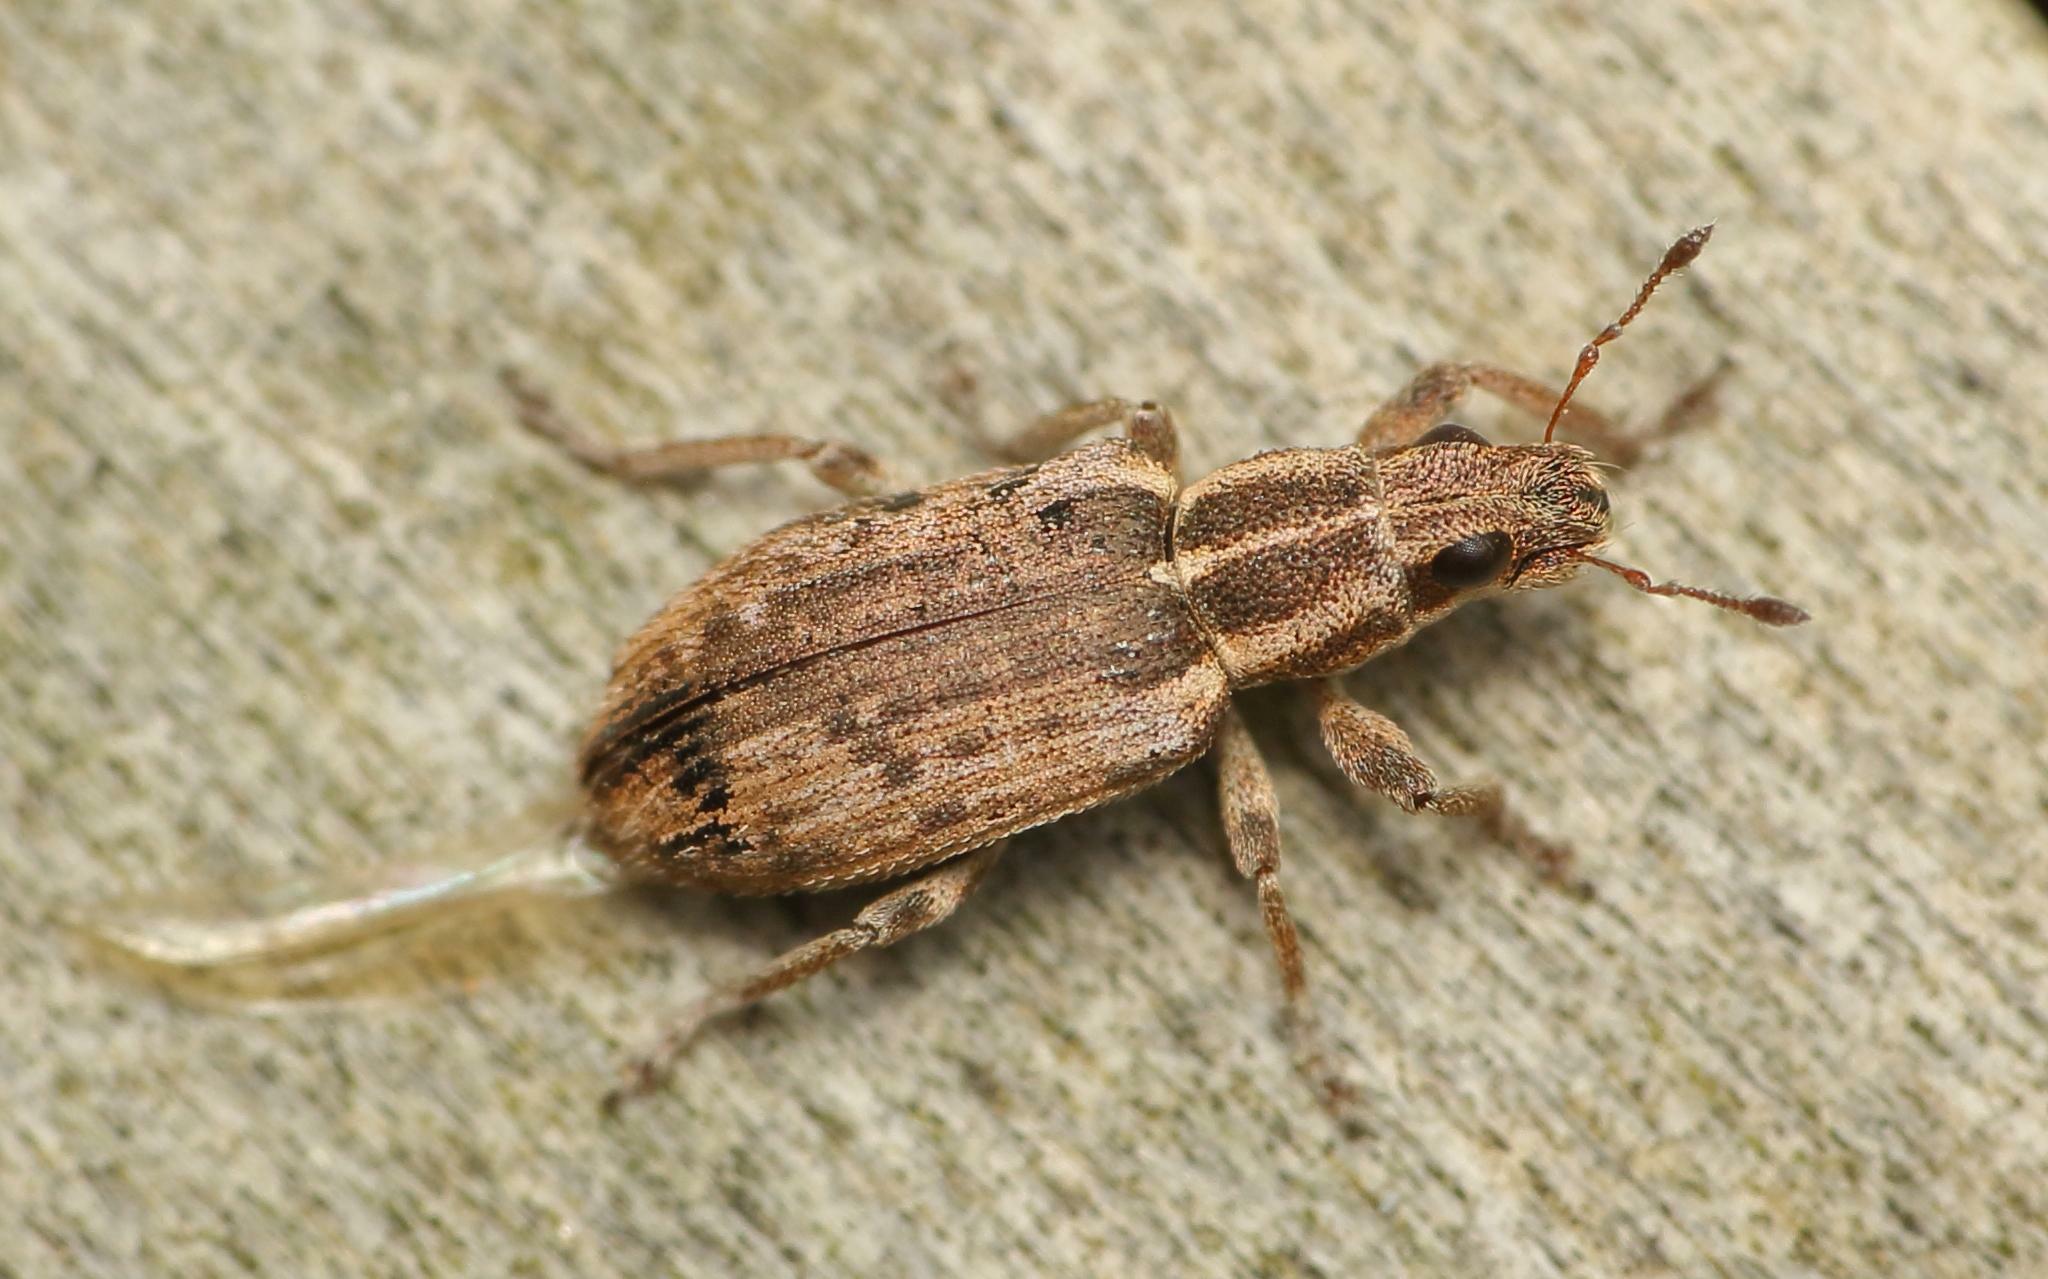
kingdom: Animalia
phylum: Arthropoda
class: Insecta
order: Coleoptera
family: Curculionidae
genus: Sitona
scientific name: Sitona discoideus
